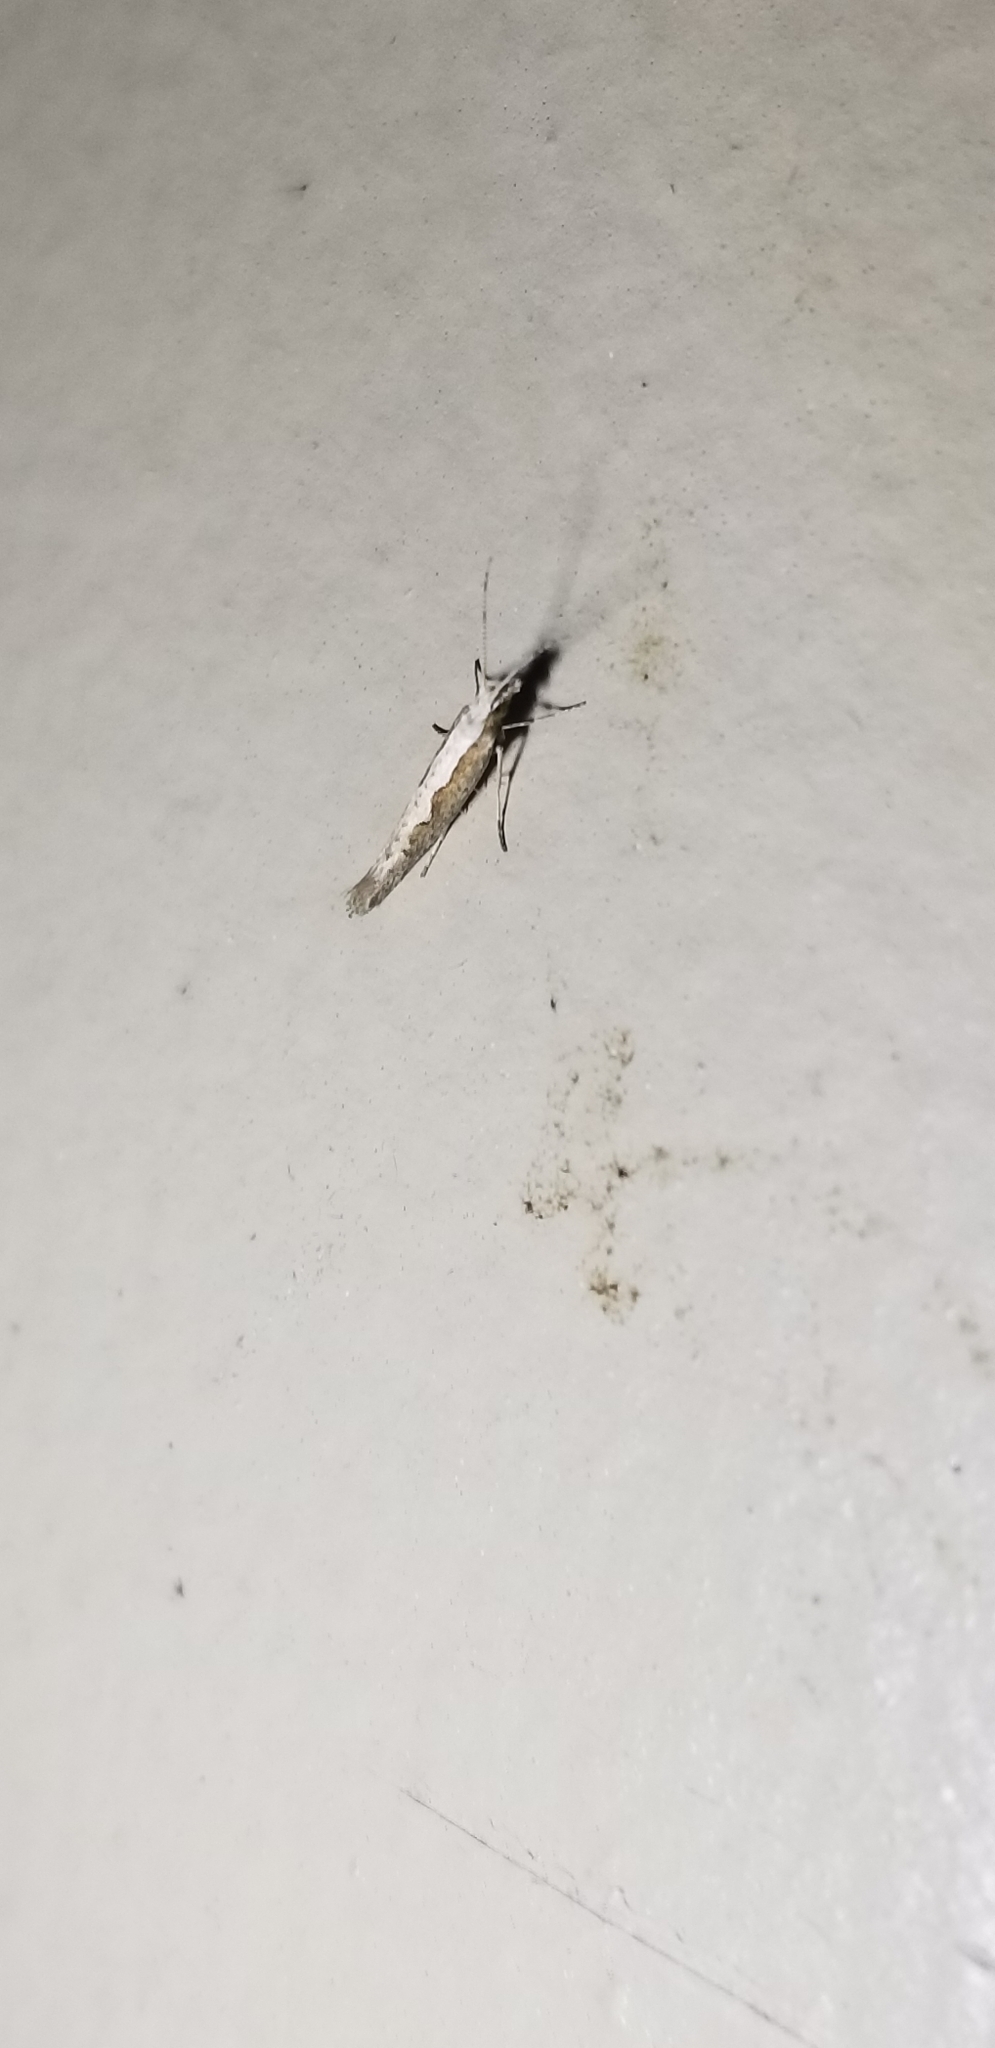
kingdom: Animalia
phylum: Arthropoda
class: Insecta
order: Lepidoptera
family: Plutellidae
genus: Plutella
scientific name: Plutella xylostella
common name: Diamond-back moth
